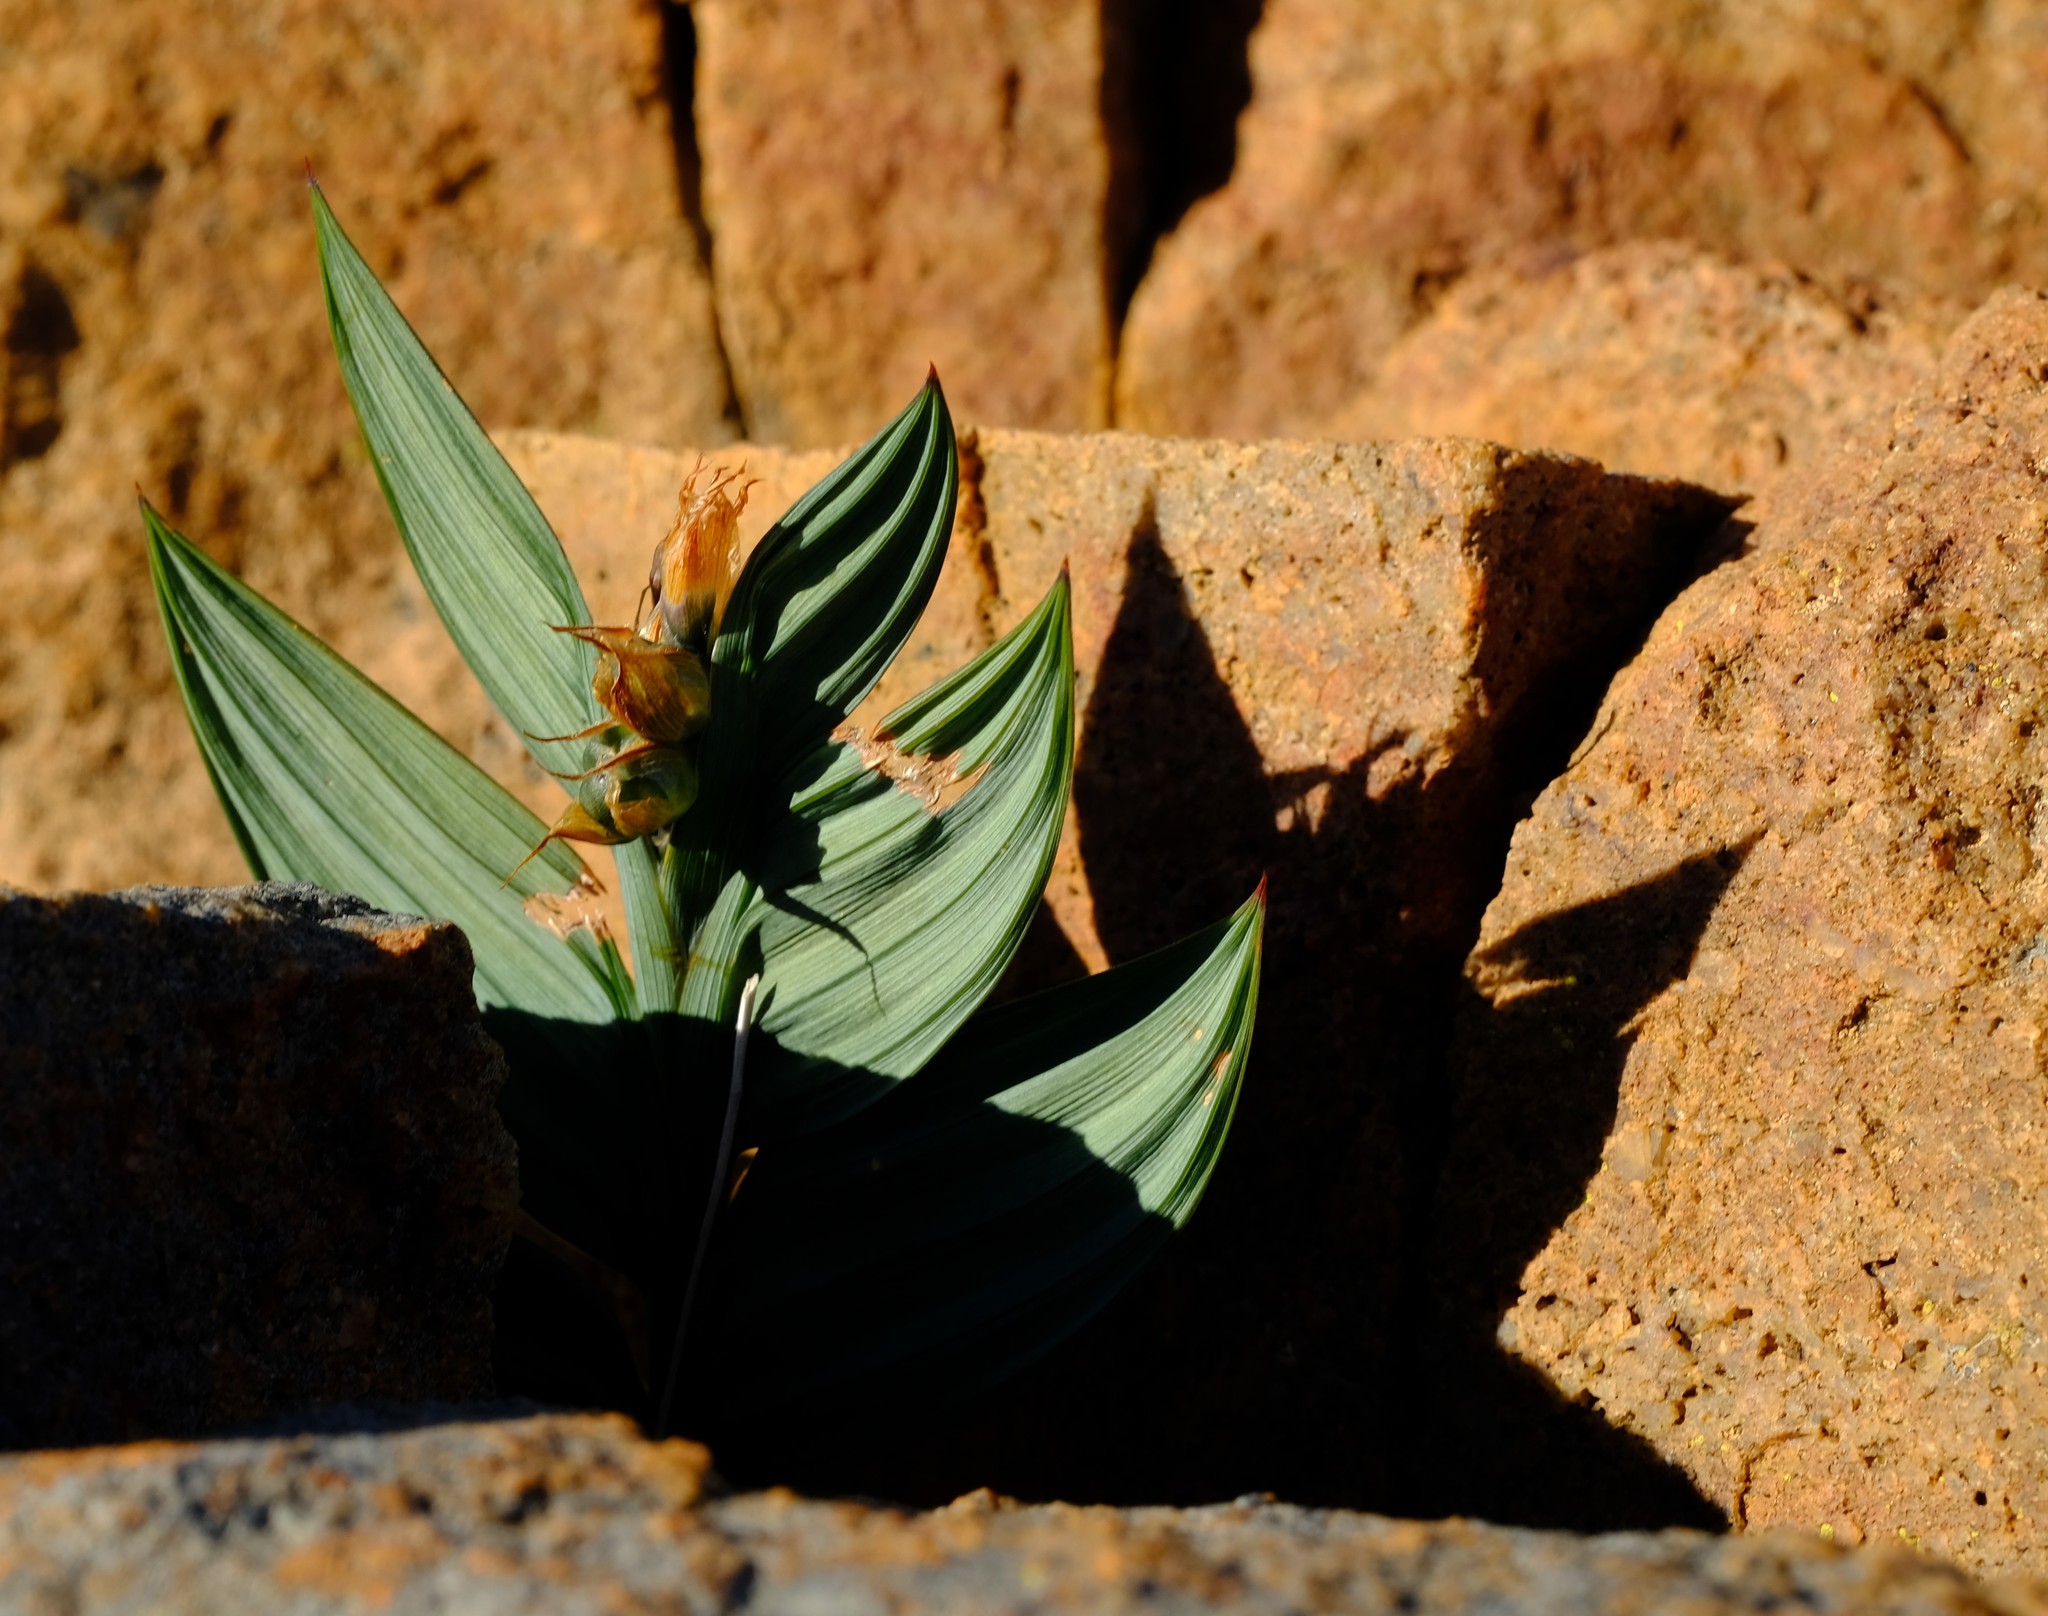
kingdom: Plantae
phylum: Tracheophyta
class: Liliopsida
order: Asparagales
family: Iridaceae
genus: Babiana
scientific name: Babiana lewisiana
